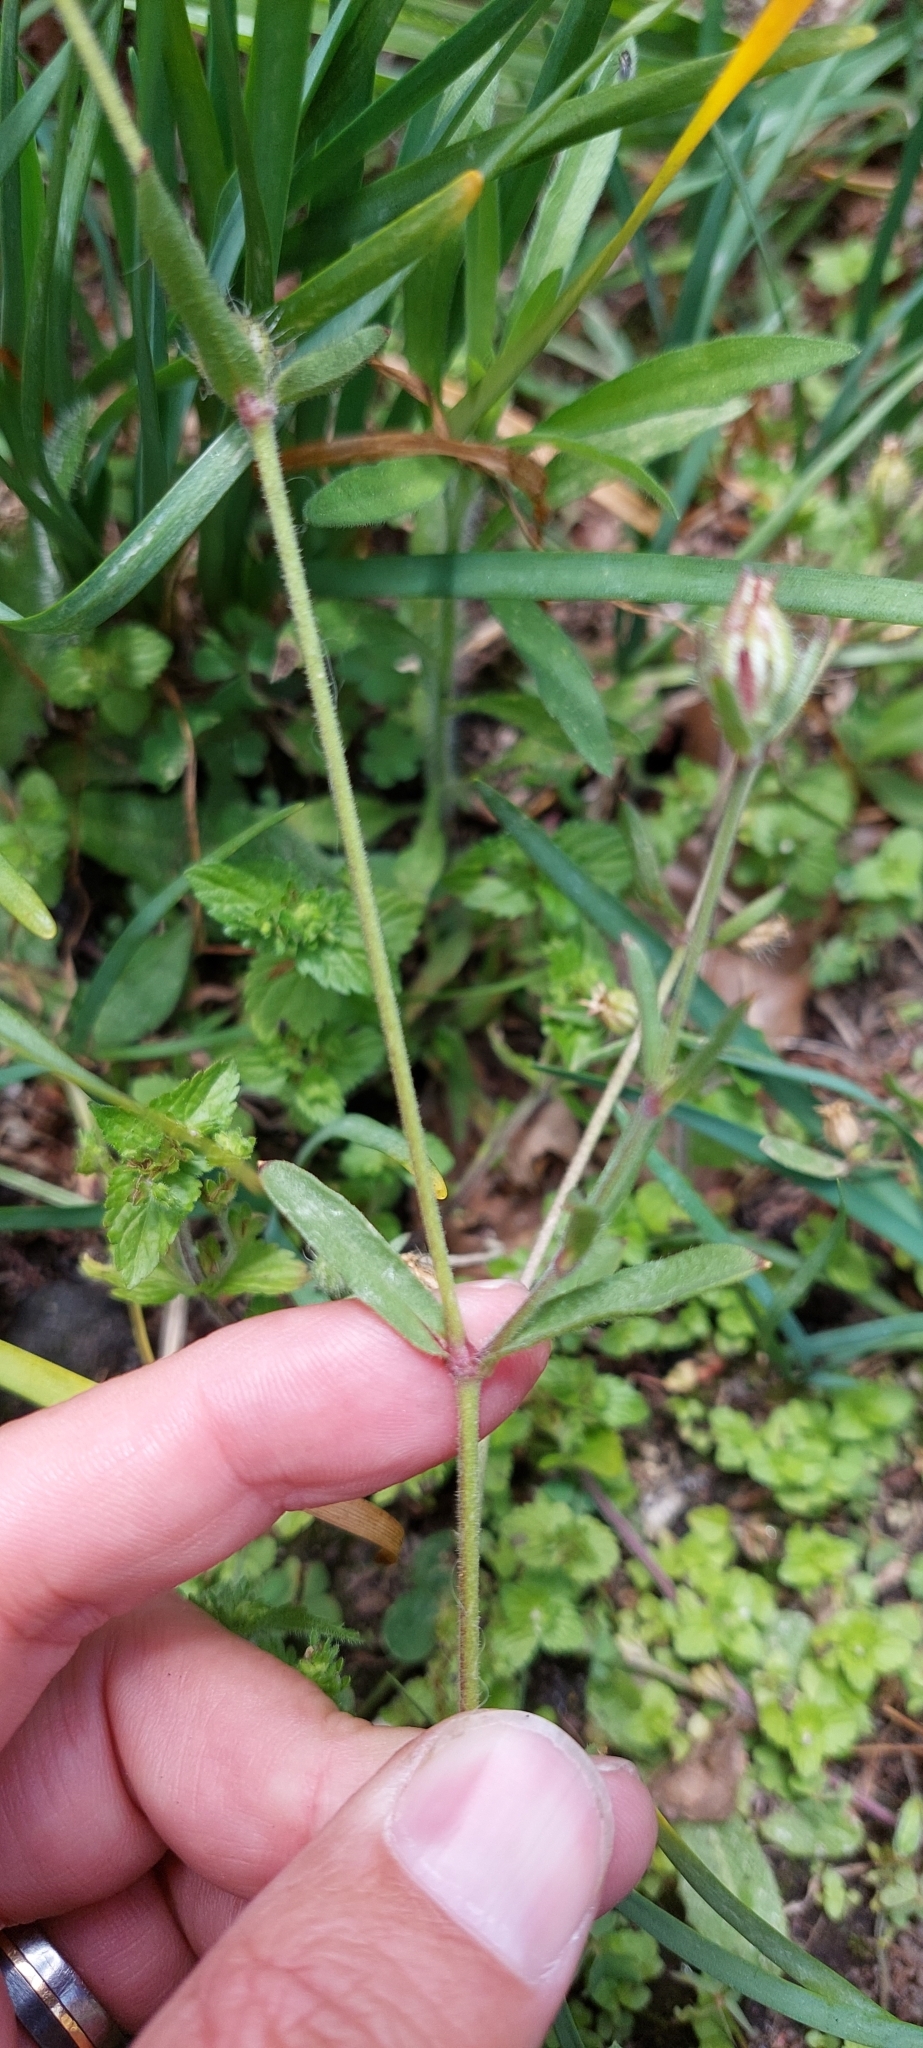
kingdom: Plantae
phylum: Tracheophyta
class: Magnoliopsida
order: Caryophyllales
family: Caryophyllaceae
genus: Silene
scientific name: Silene gallica
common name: Small-flowered catchfly
